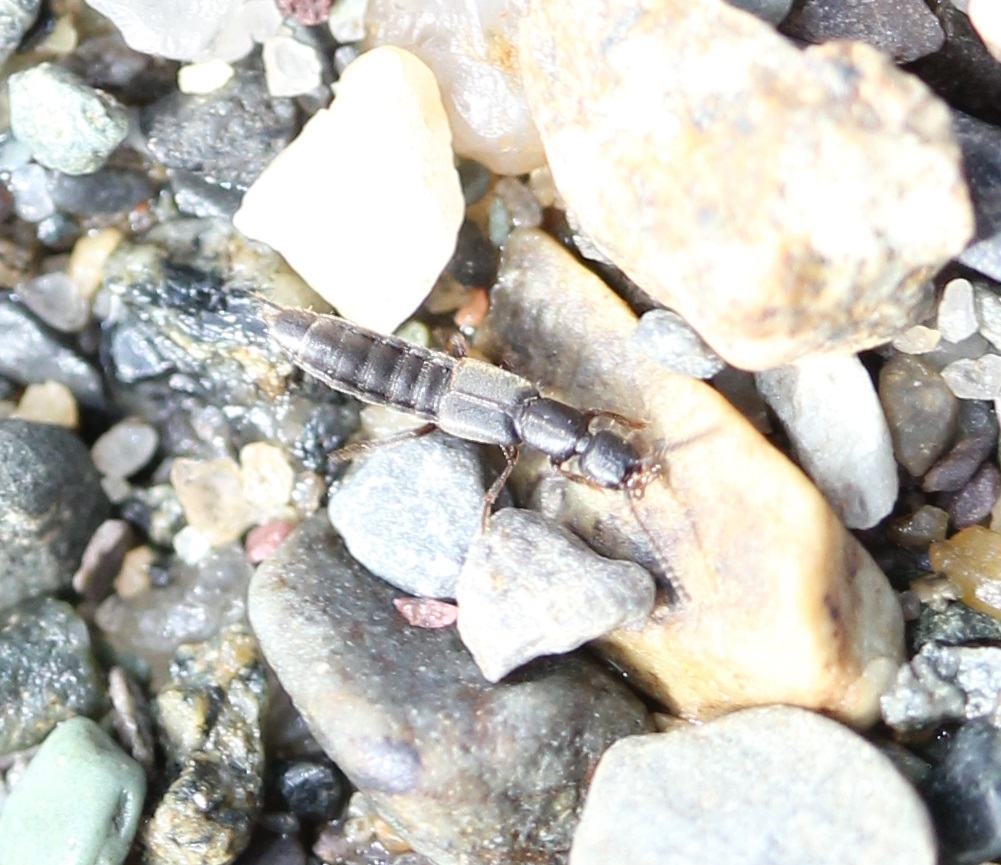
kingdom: Animalia
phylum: Arthropoda
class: Insecta
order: Coleoptera
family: Staphylinidae
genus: Cafius
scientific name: Cafius bistriatus
